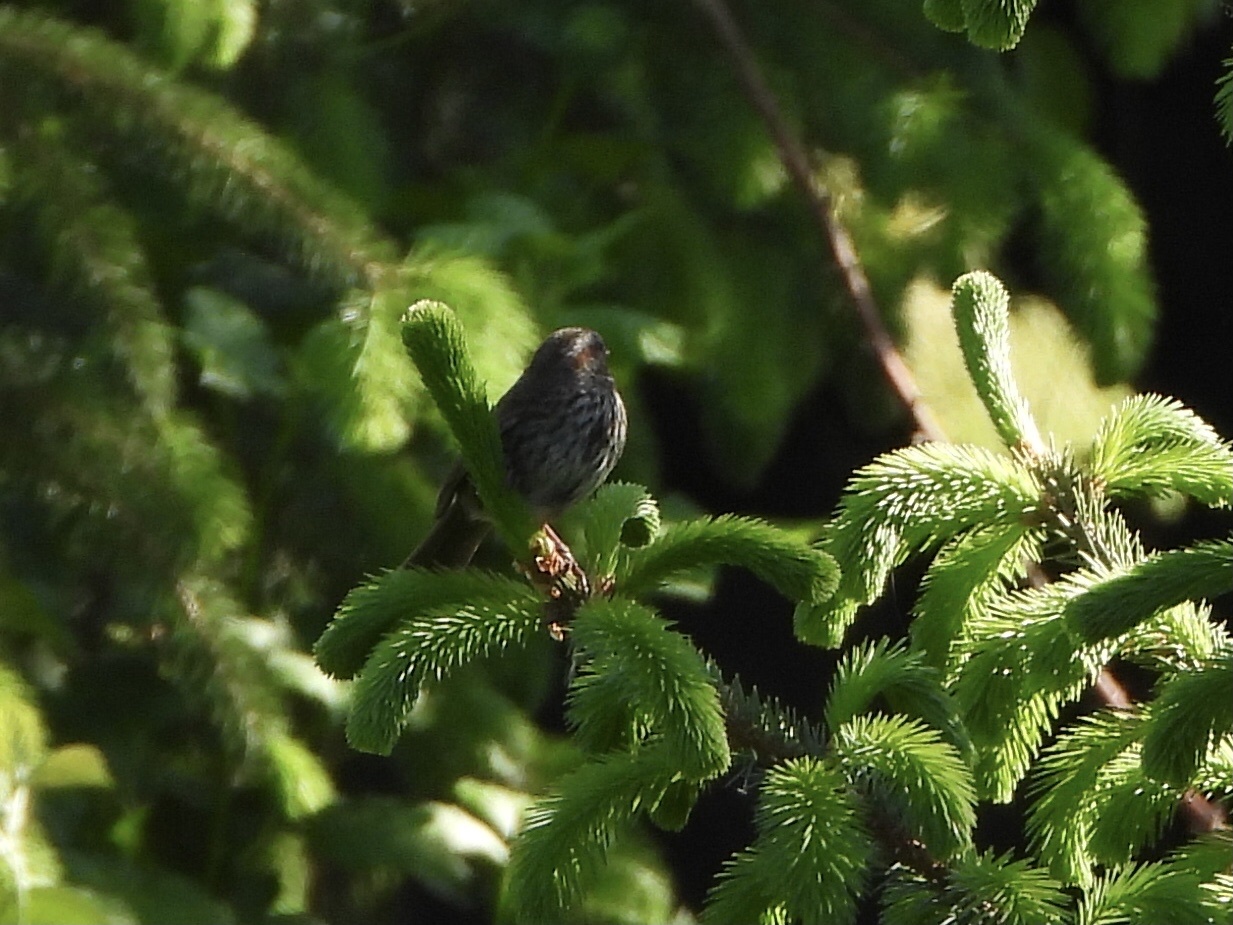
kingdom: Animalia
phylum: Chordata
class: Aves
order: Passeriformes
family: Passerellidae
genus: Melospiza
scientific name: Melospiza melodia
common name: Song sparrow
